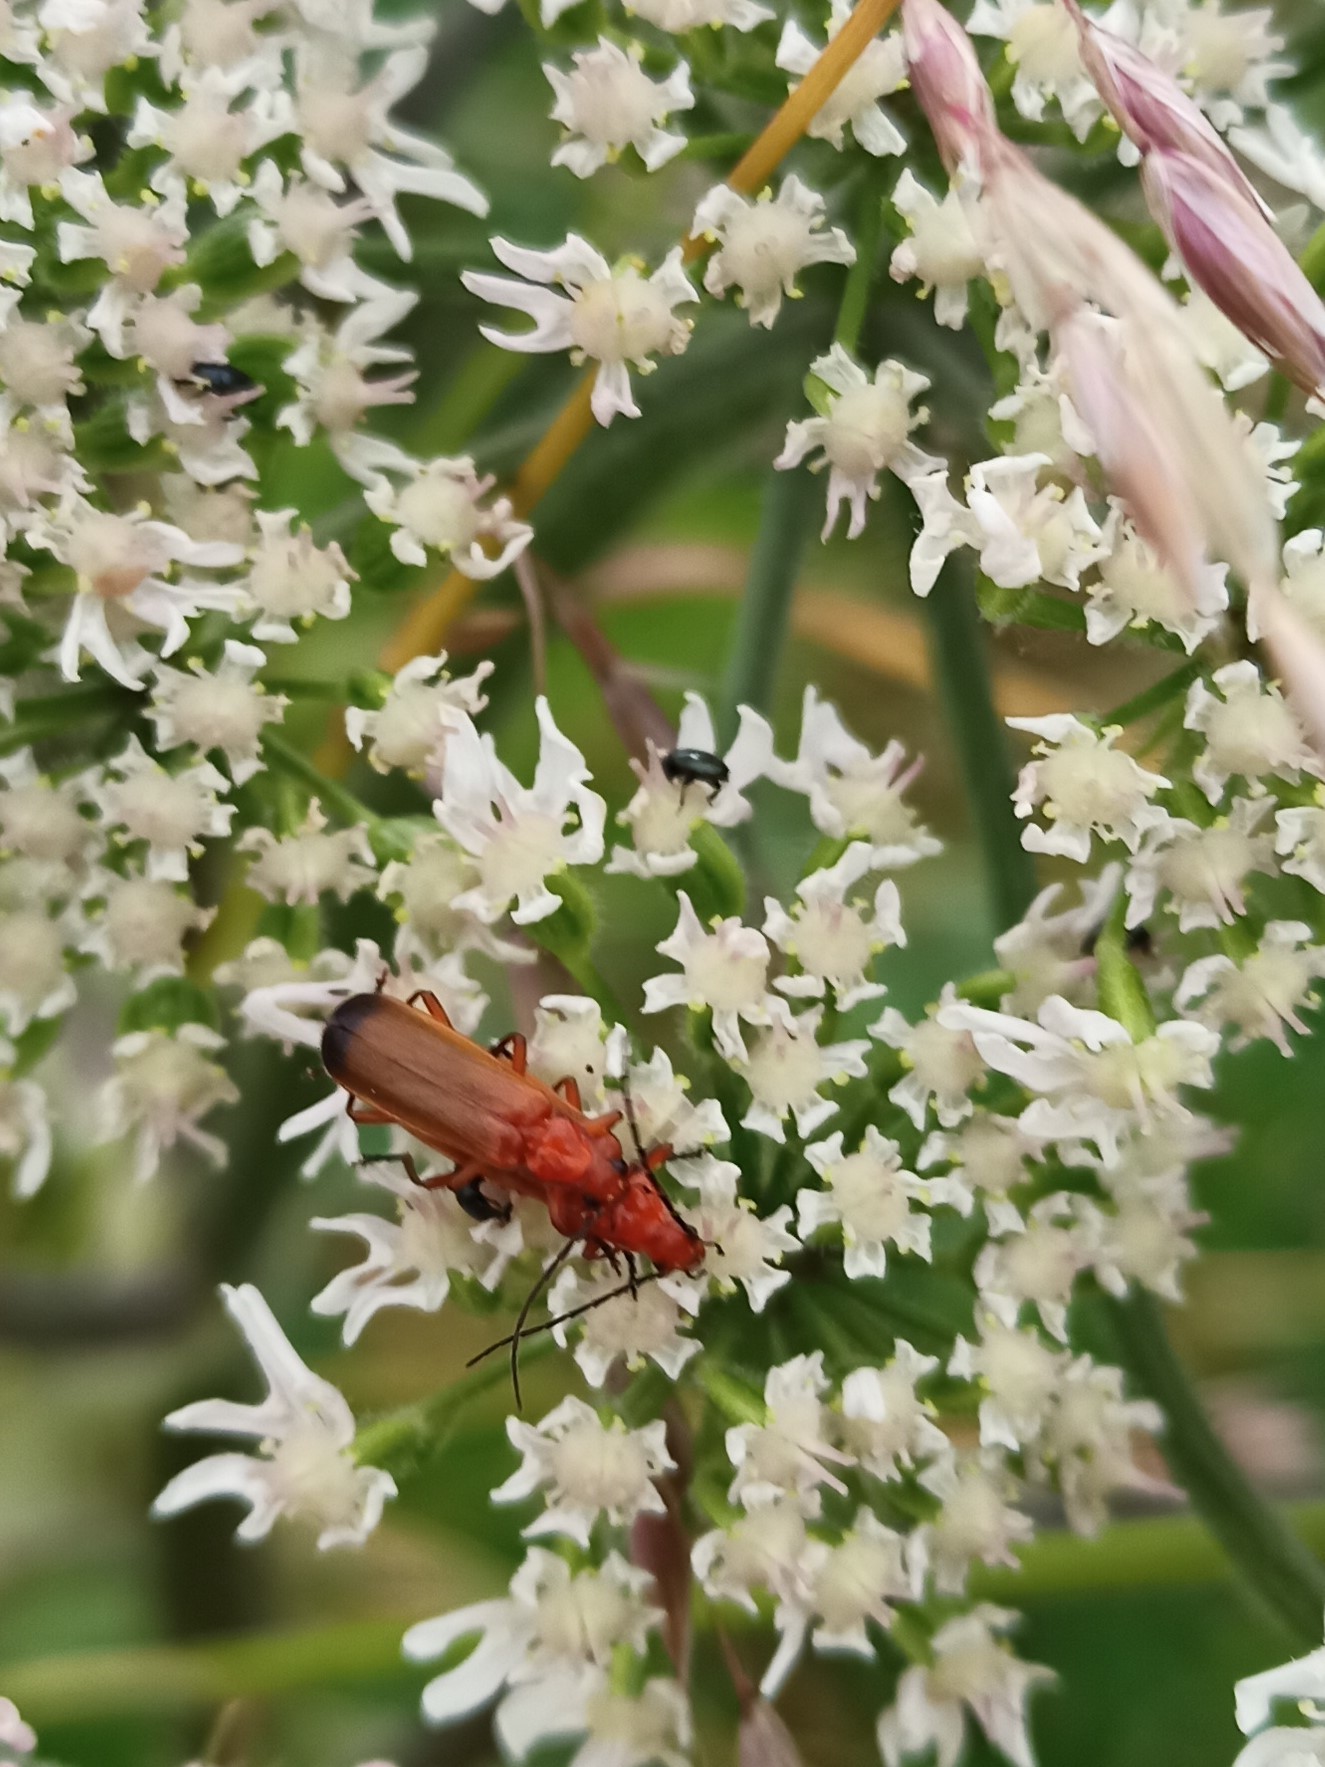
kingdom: Animalia
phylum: Arthropoda
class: Insecta
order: Coleoptera
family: Cantharidae
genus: Rhagonycha
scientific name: Rhagonycha fulva
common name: Common red soldier beetle
